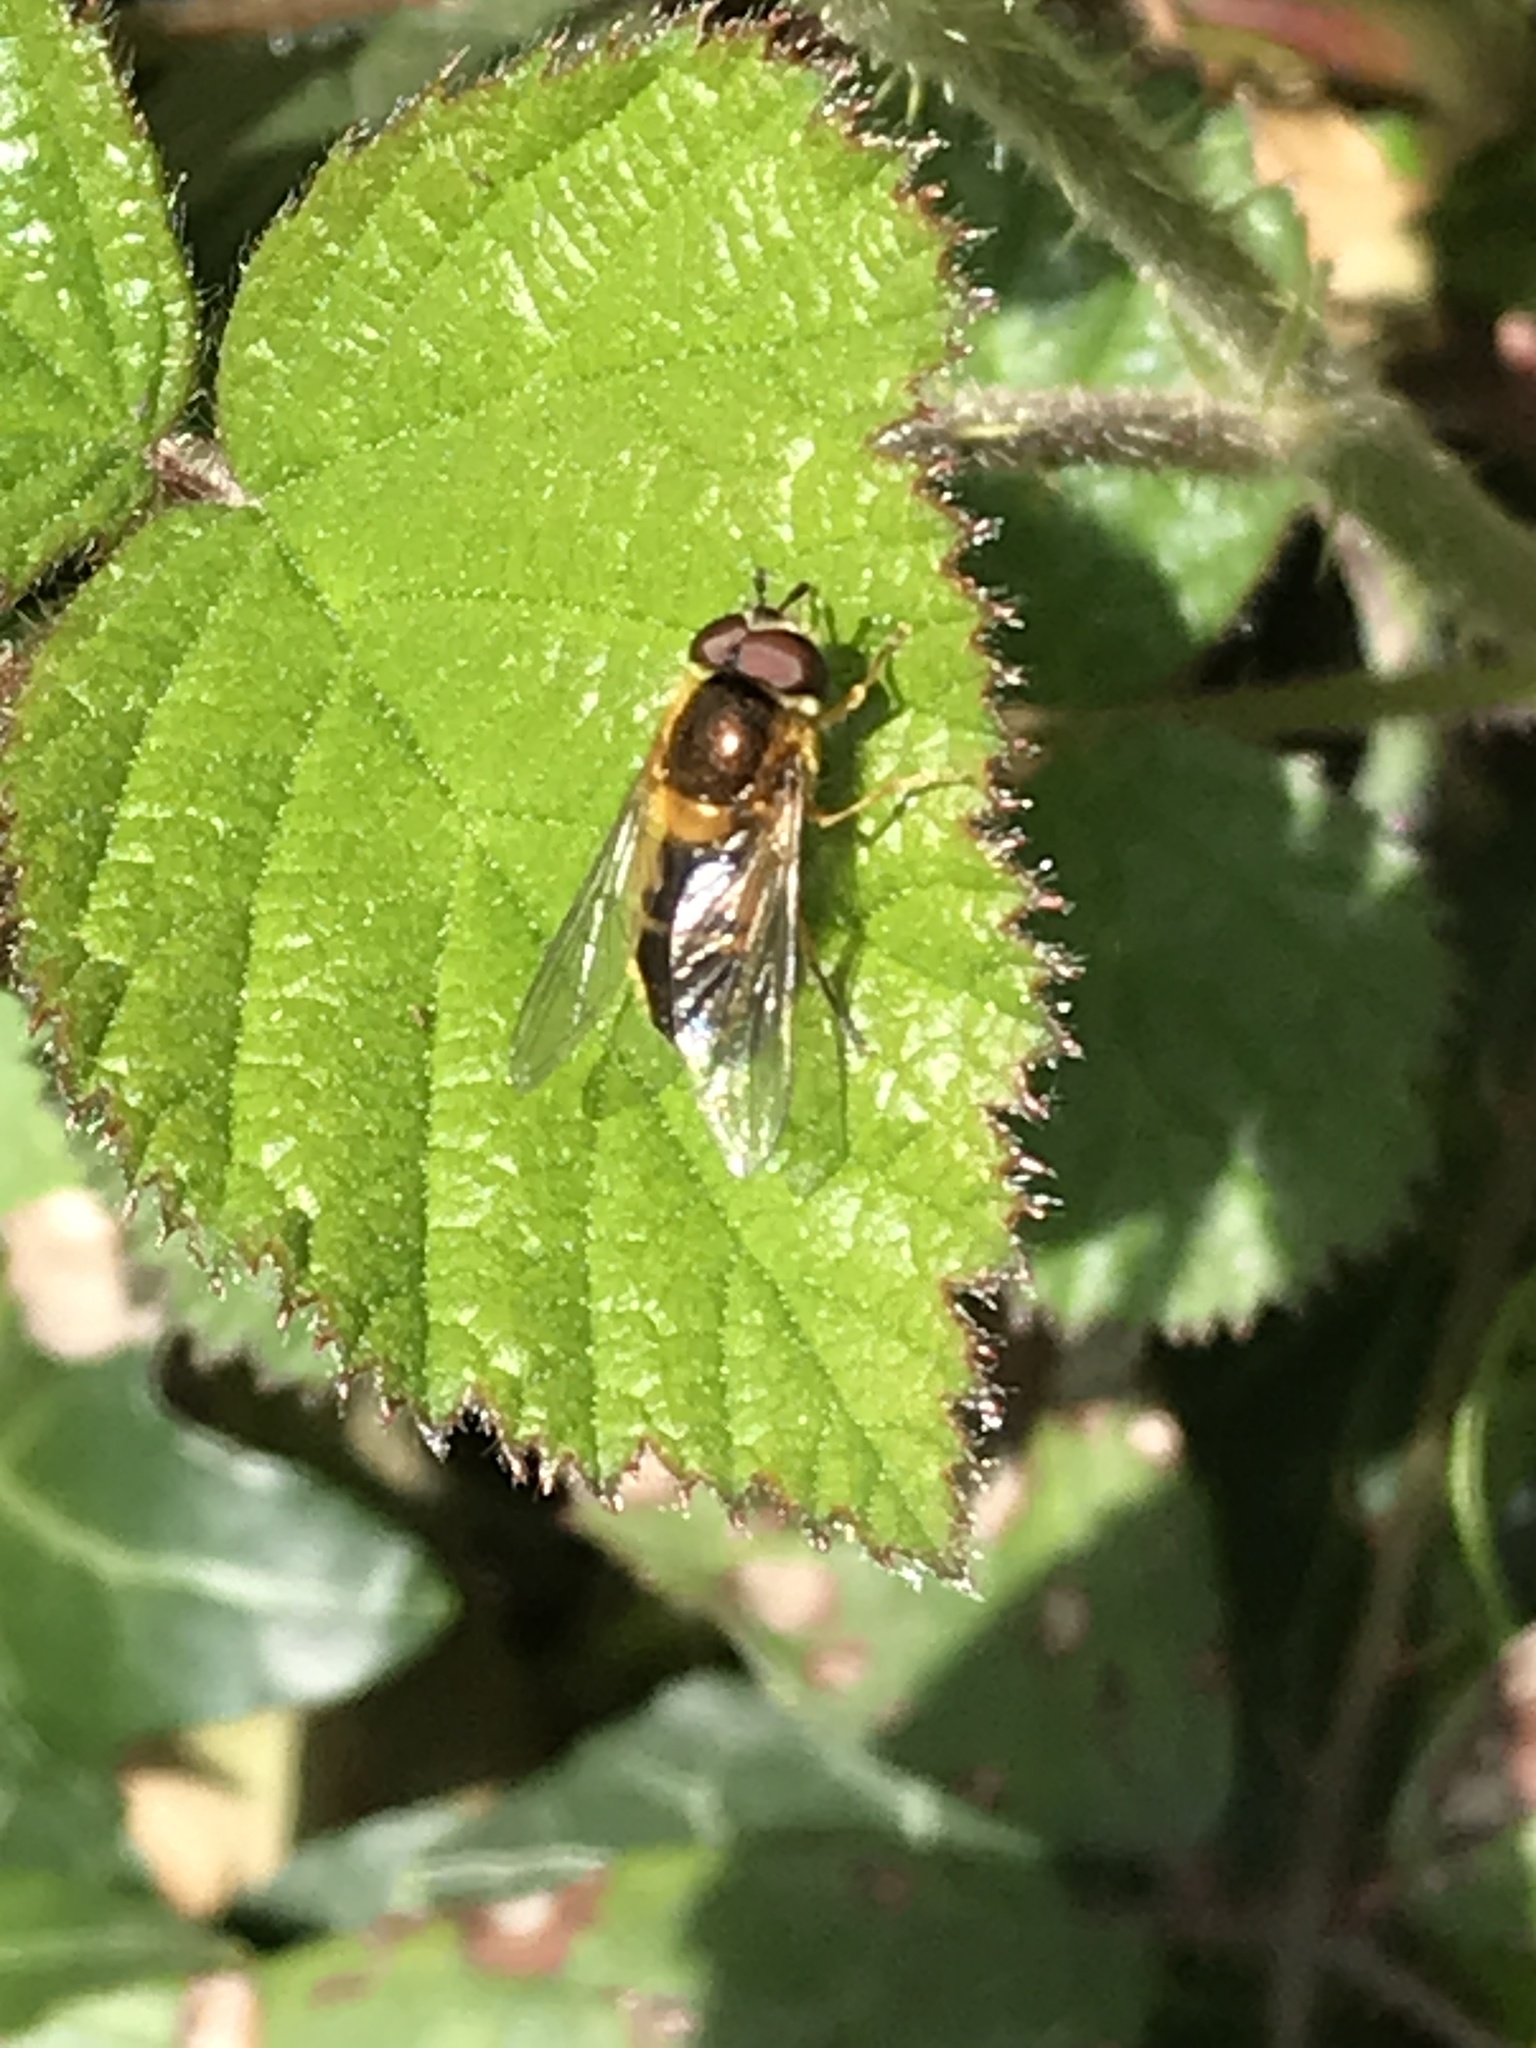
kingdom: Animalia
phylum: Arthropoda
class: Insecta
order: Diptera
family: Syrphidae
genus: Epistrophe
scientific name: Epistrophe eligans
